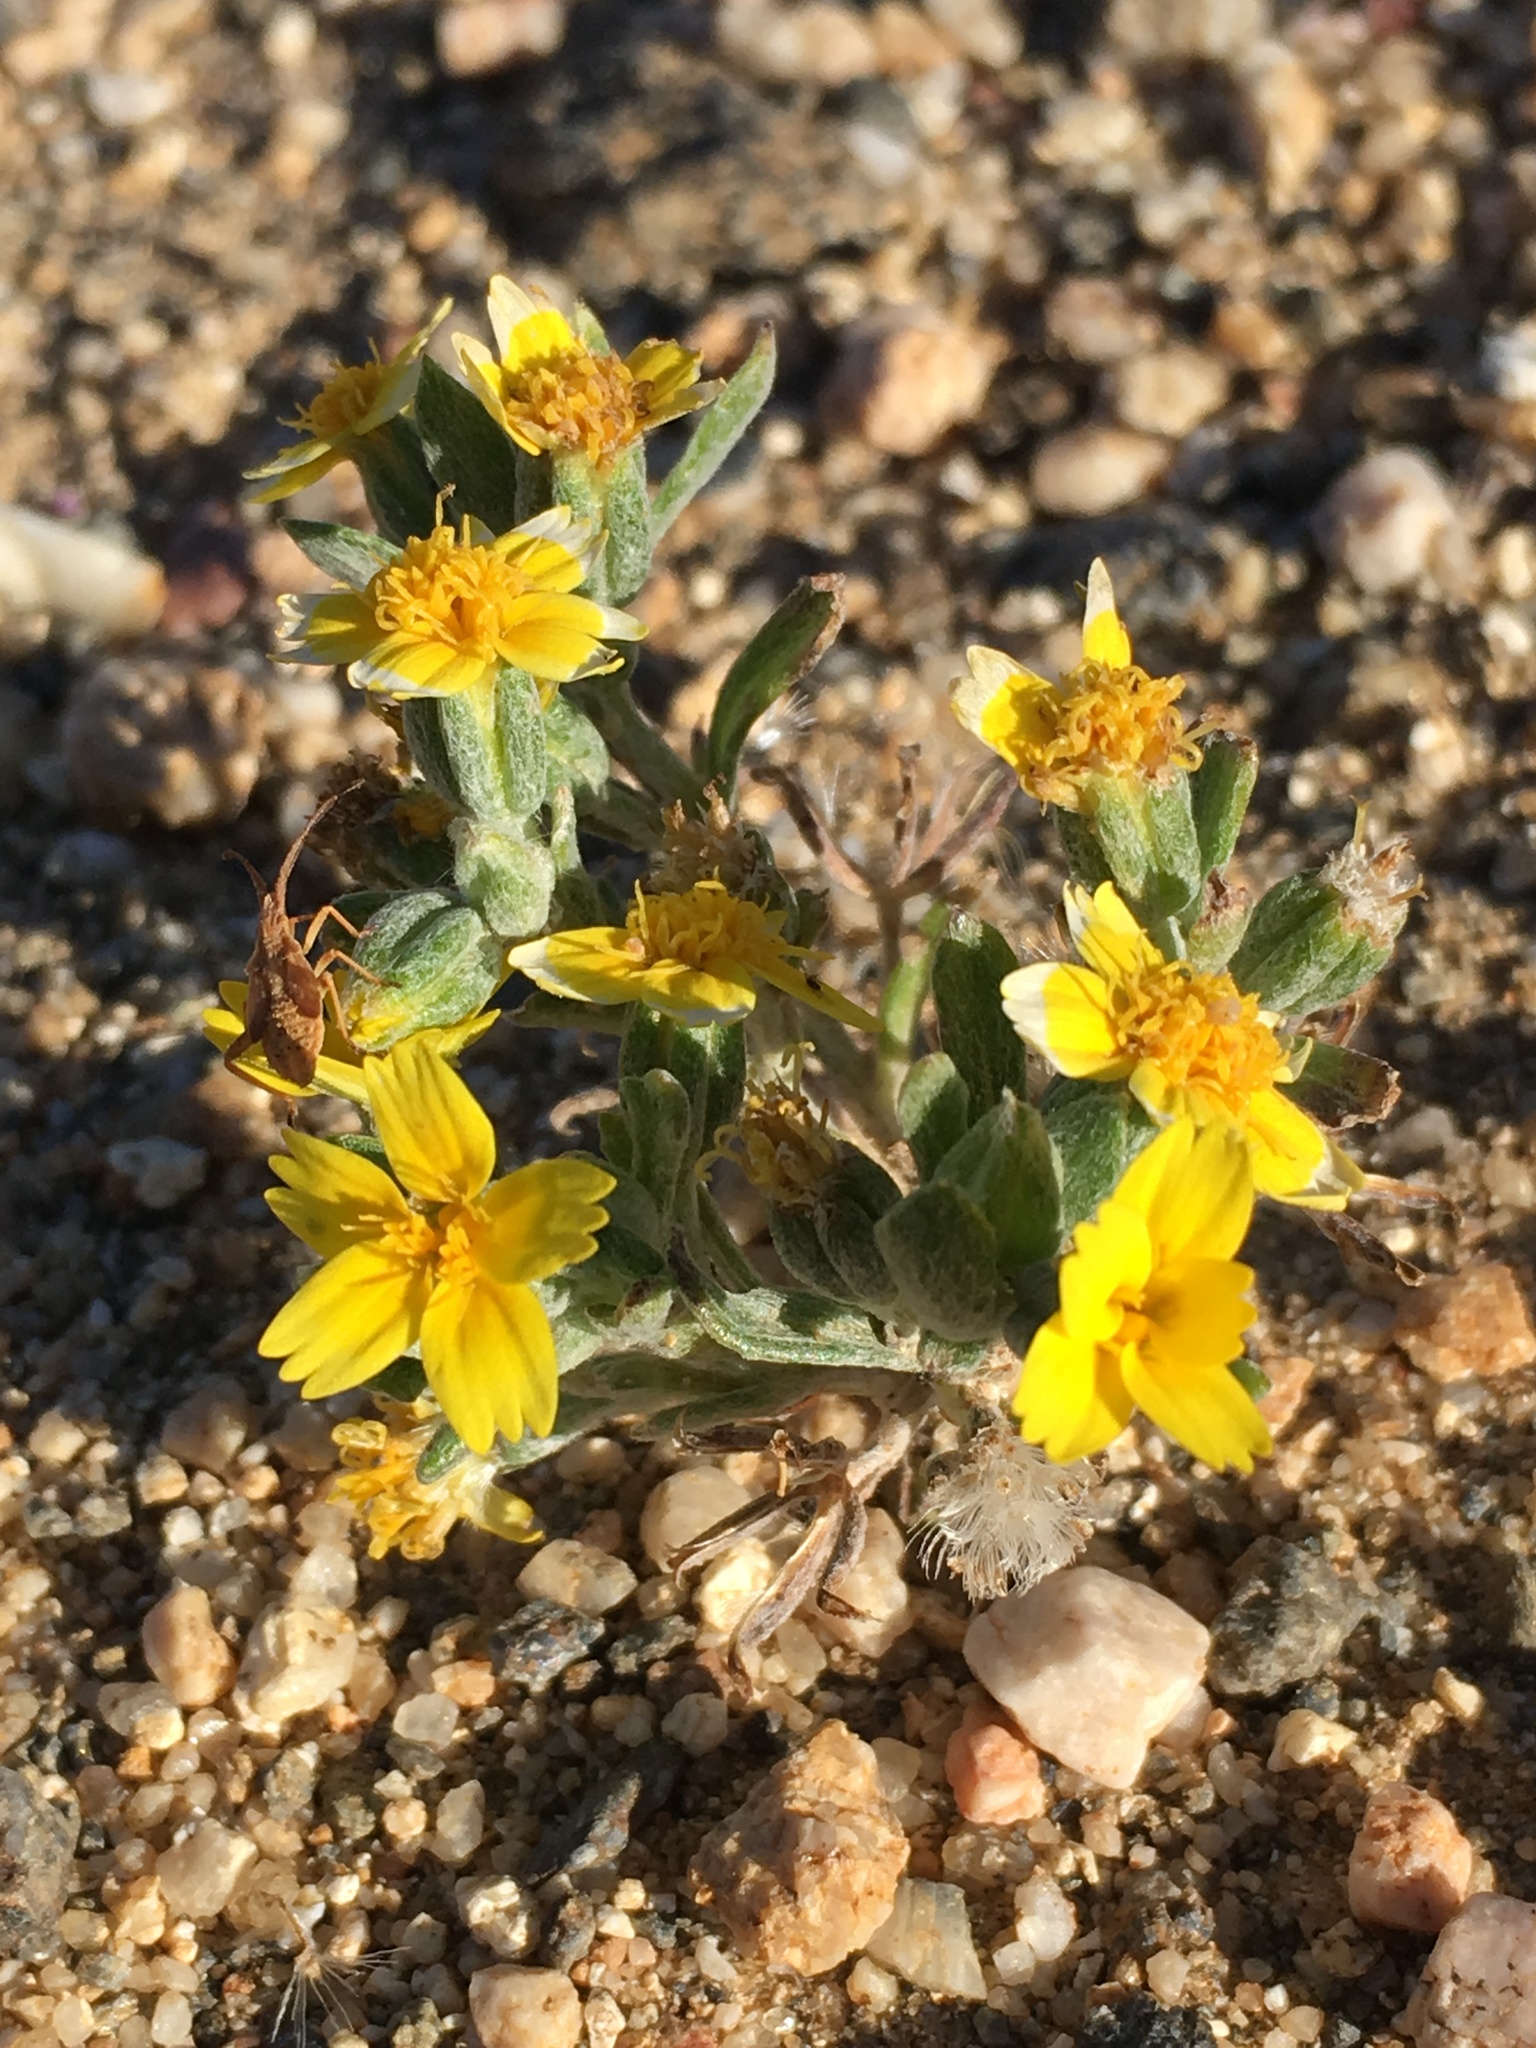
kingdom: Plantae
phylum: Tracheophyta
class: Magnoliopsida
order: Asterales
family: Asteraceae
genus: Syntrichopappus
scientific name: Syntrichopappus fremontii
